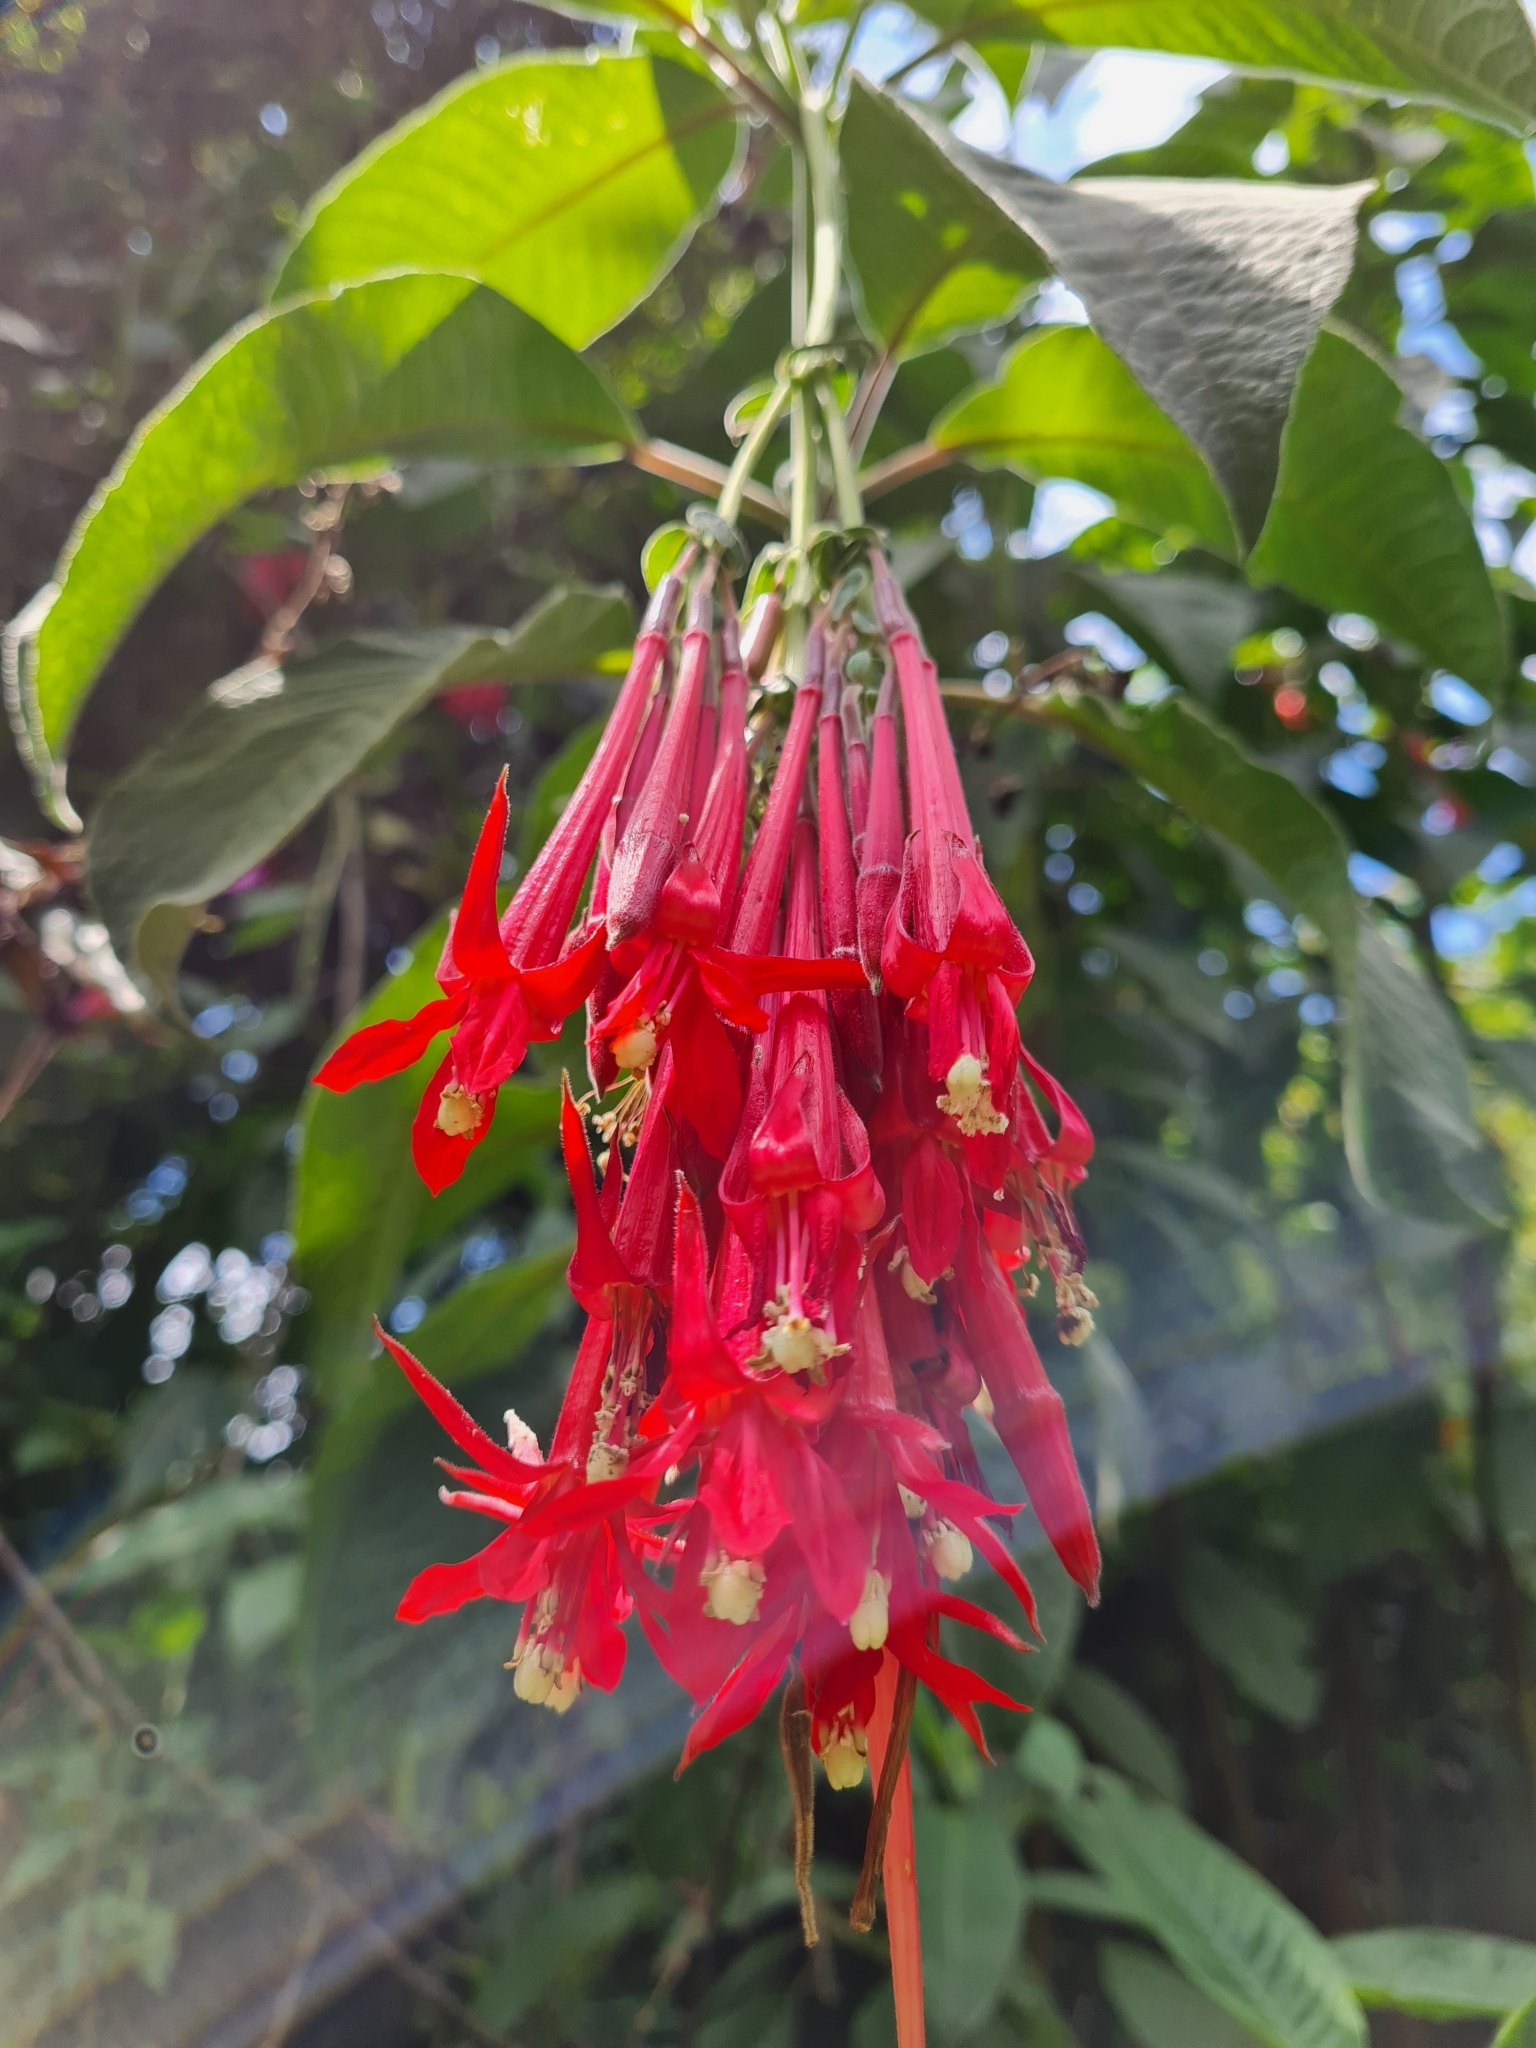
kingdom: Plantae
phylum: Tracheophyta
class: Magnoliopsida
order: Myrtales
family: Onagraceae
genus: Fuchsia
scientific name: Fuchsia boliviana
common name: Bolivian fuchsia
